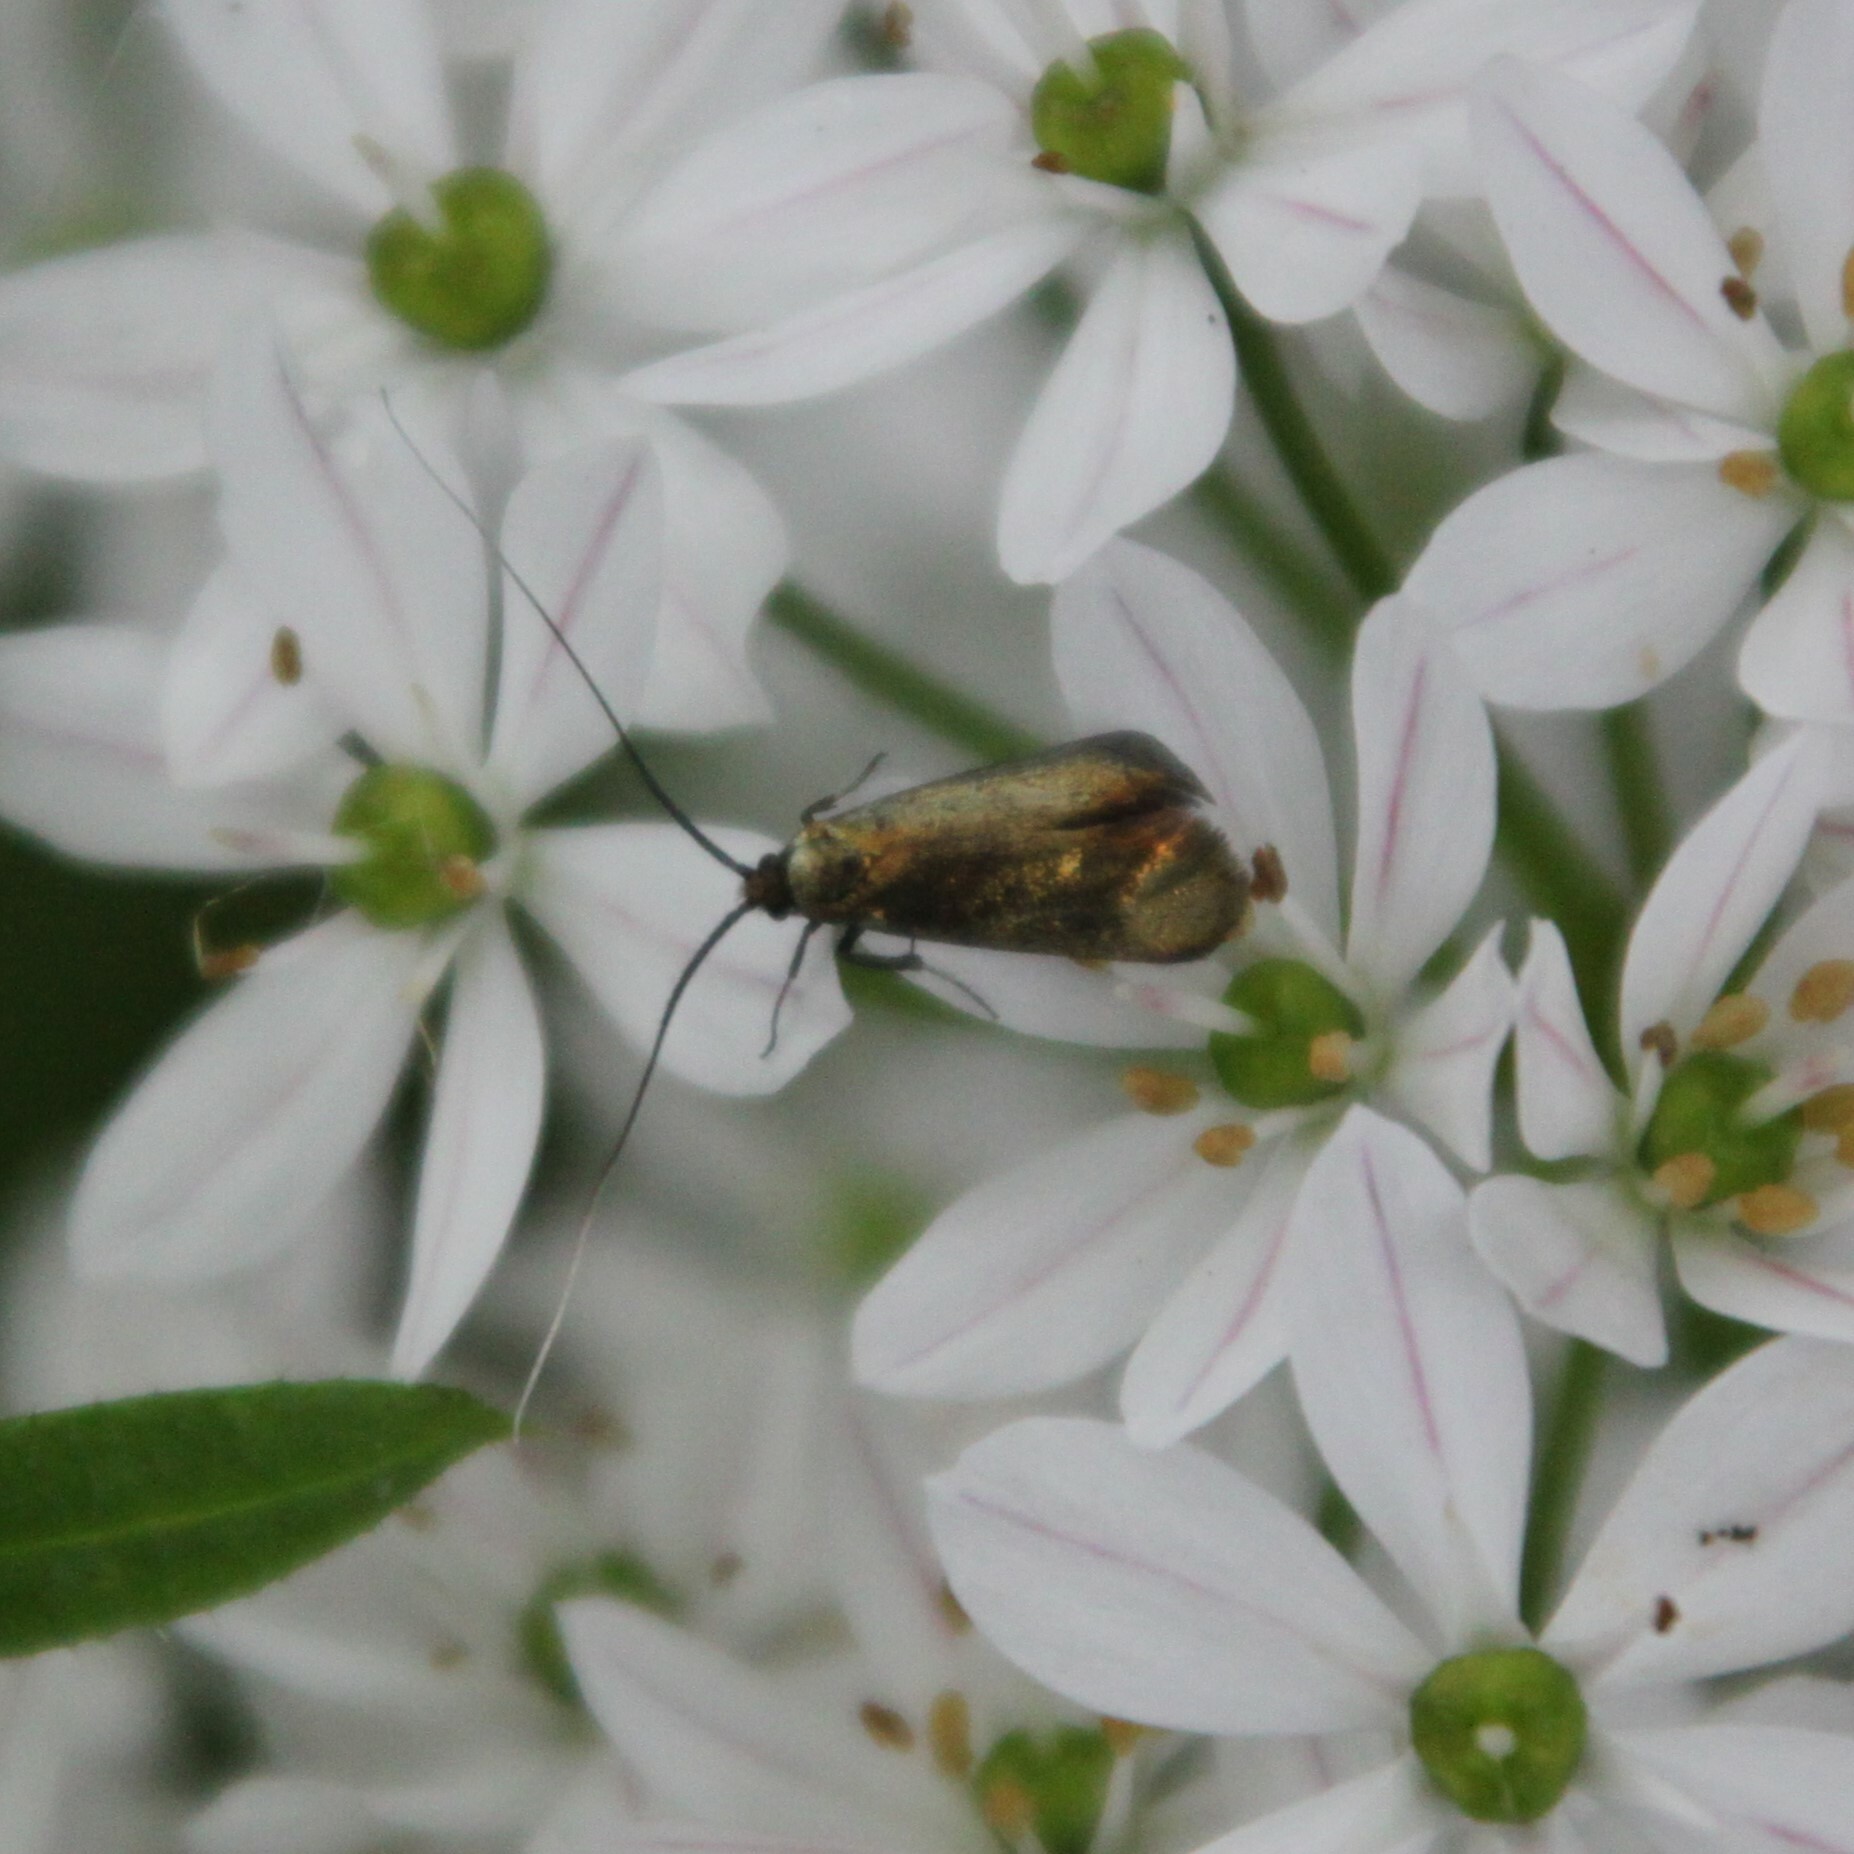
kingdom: Animalia
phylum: Arthropoda
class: Insecta
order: Lepidoptera
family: Adelidae
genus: Adela
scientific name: Adela viridella
